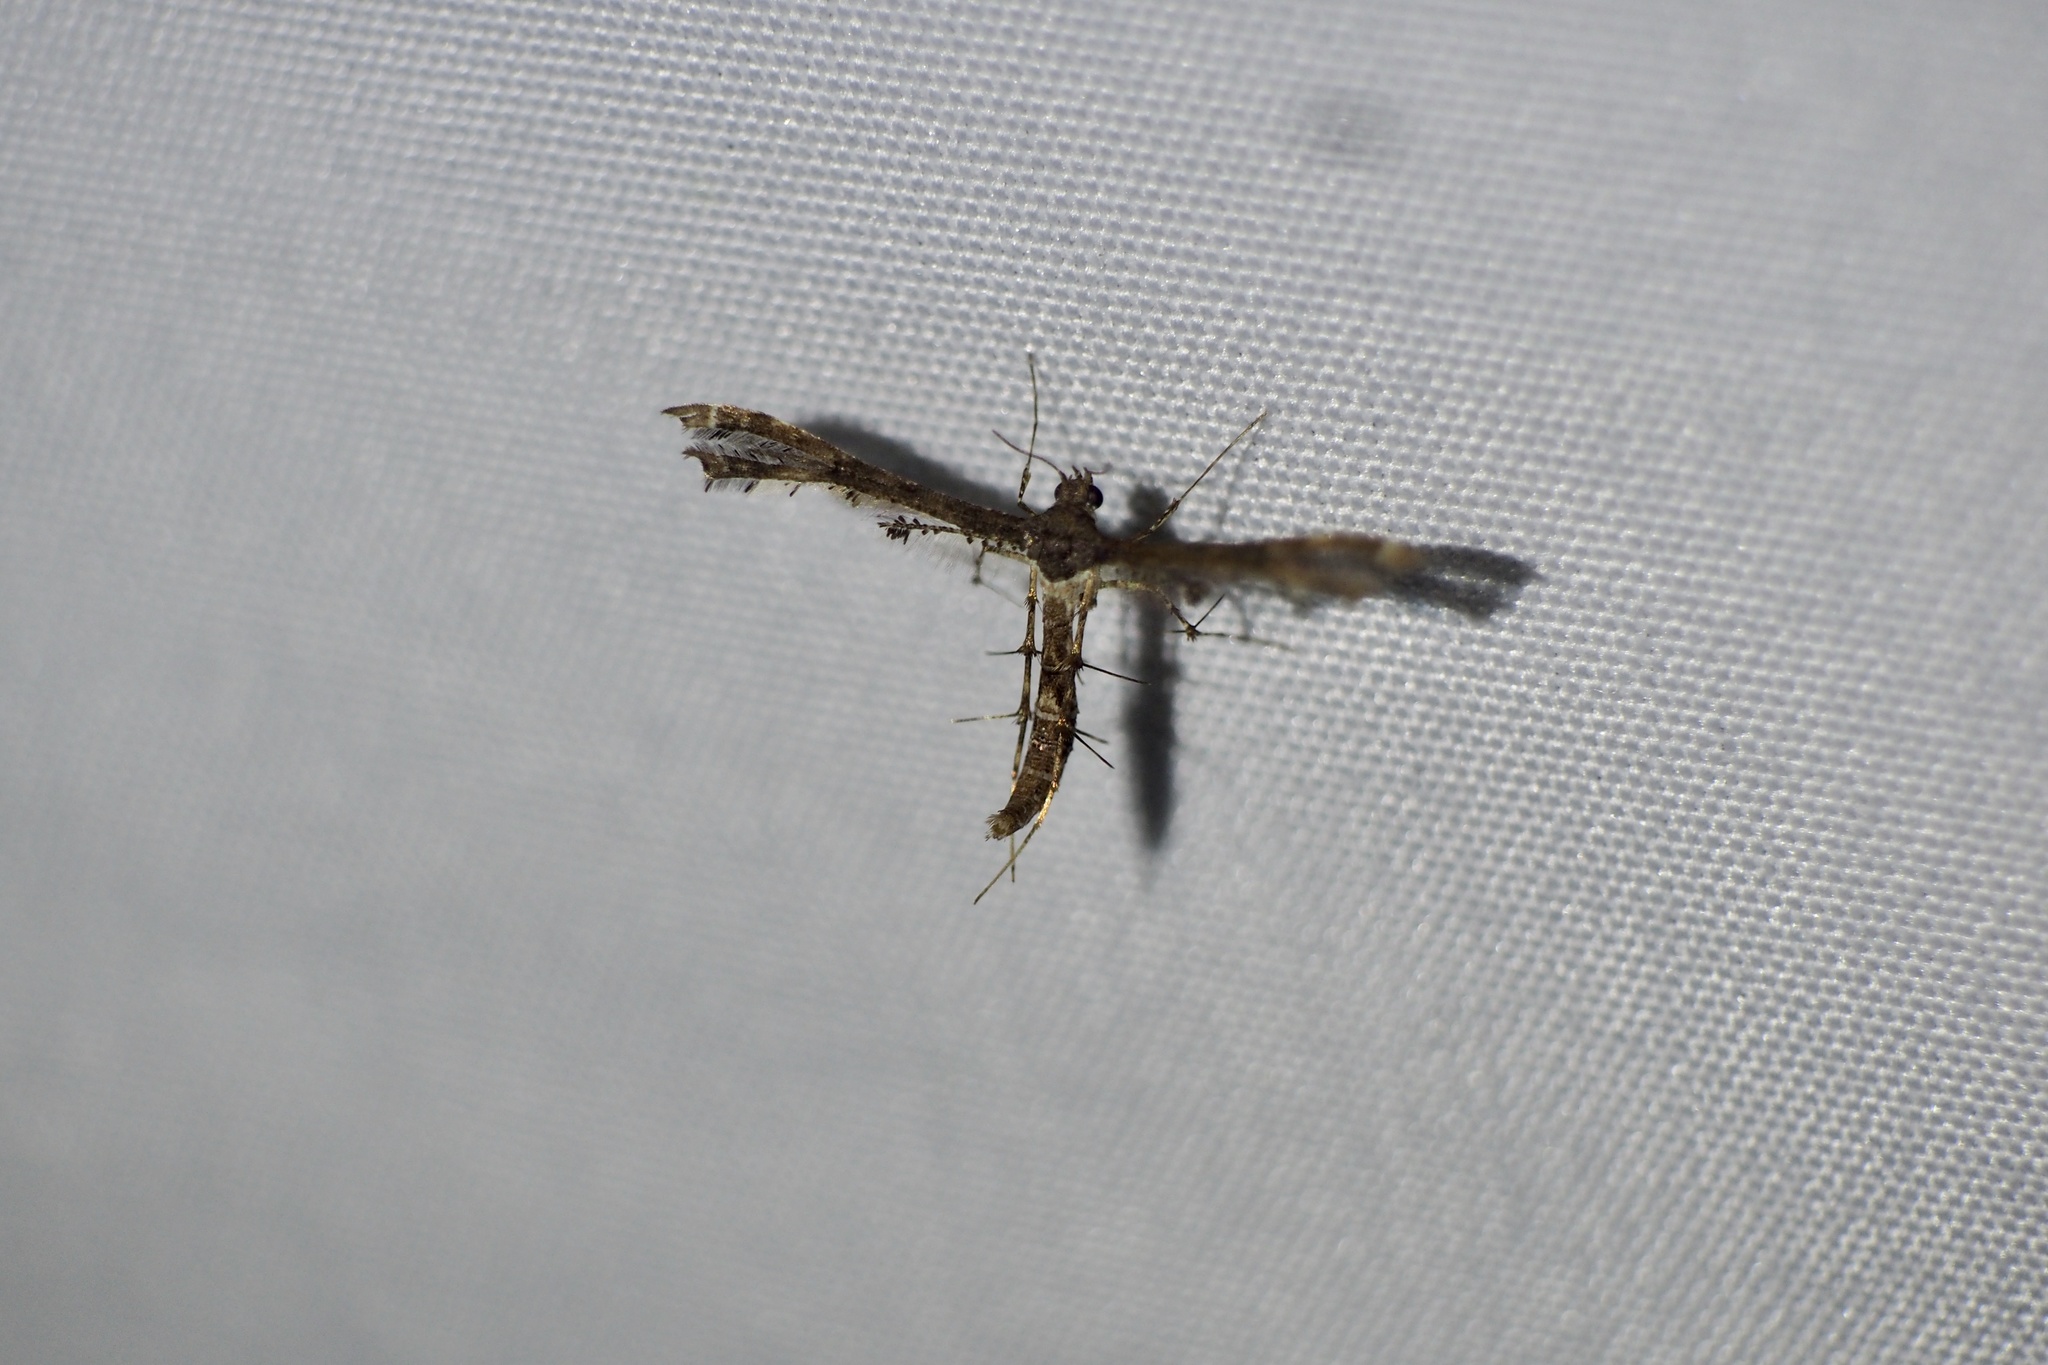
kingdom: Animalia
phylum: Arthropoda
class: Insecta
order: Lepidoptera
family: Pterophoridae
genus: Nippoptilia
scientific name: Nippoptilia vitis
